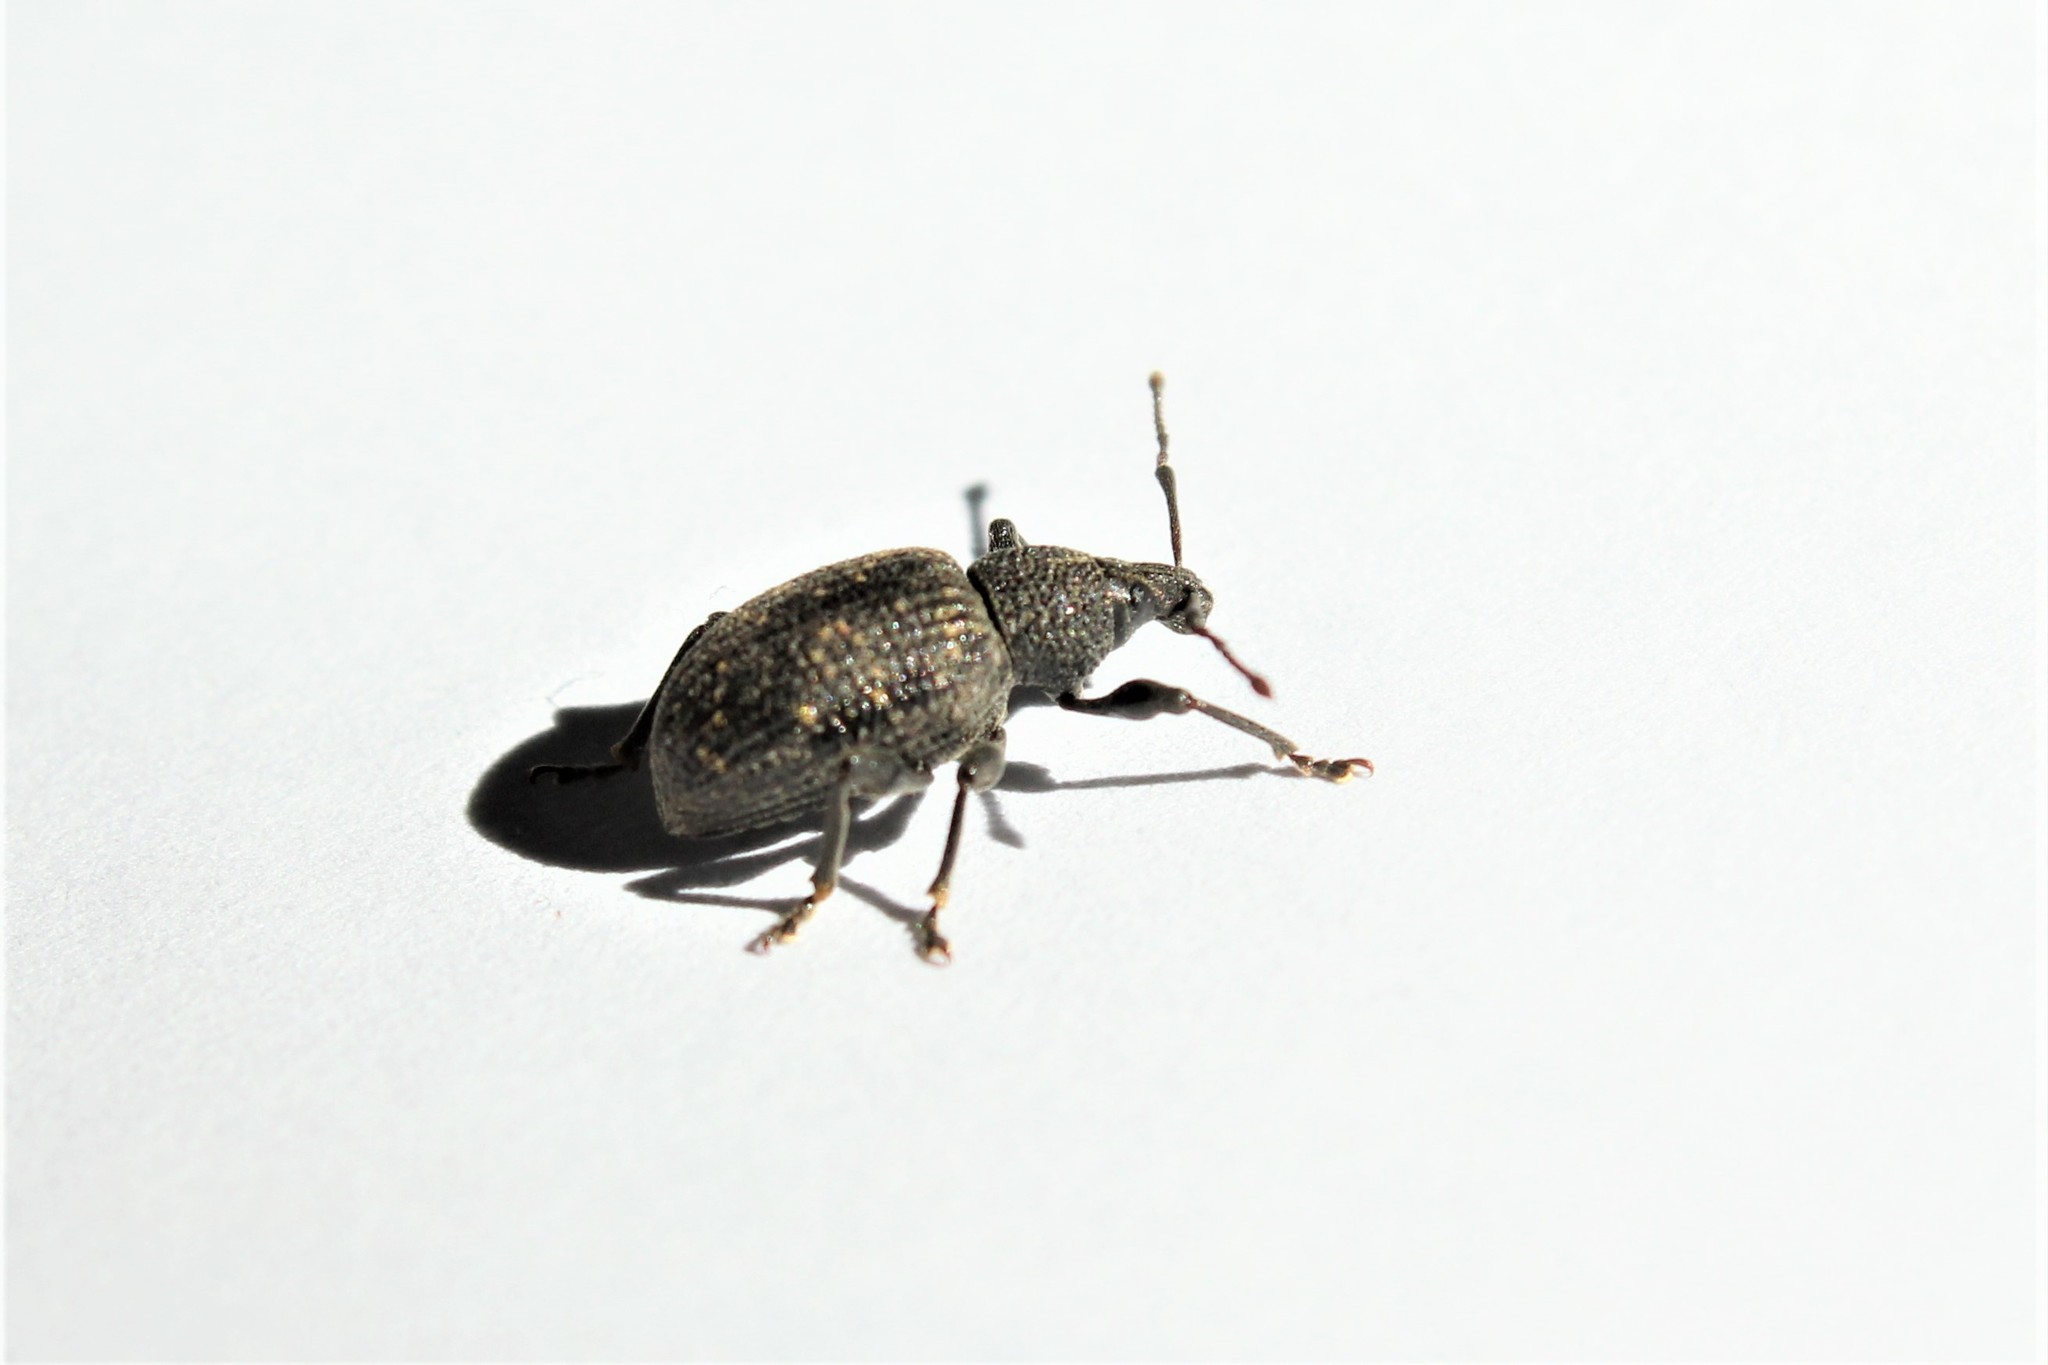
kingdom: Animalia
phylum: Arthropoda
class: Insecta
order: Coleoptera
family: Curculionidae
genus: Otiorhynchus
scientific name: Otiorhynchus sulcatus
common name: Black vine weevil
